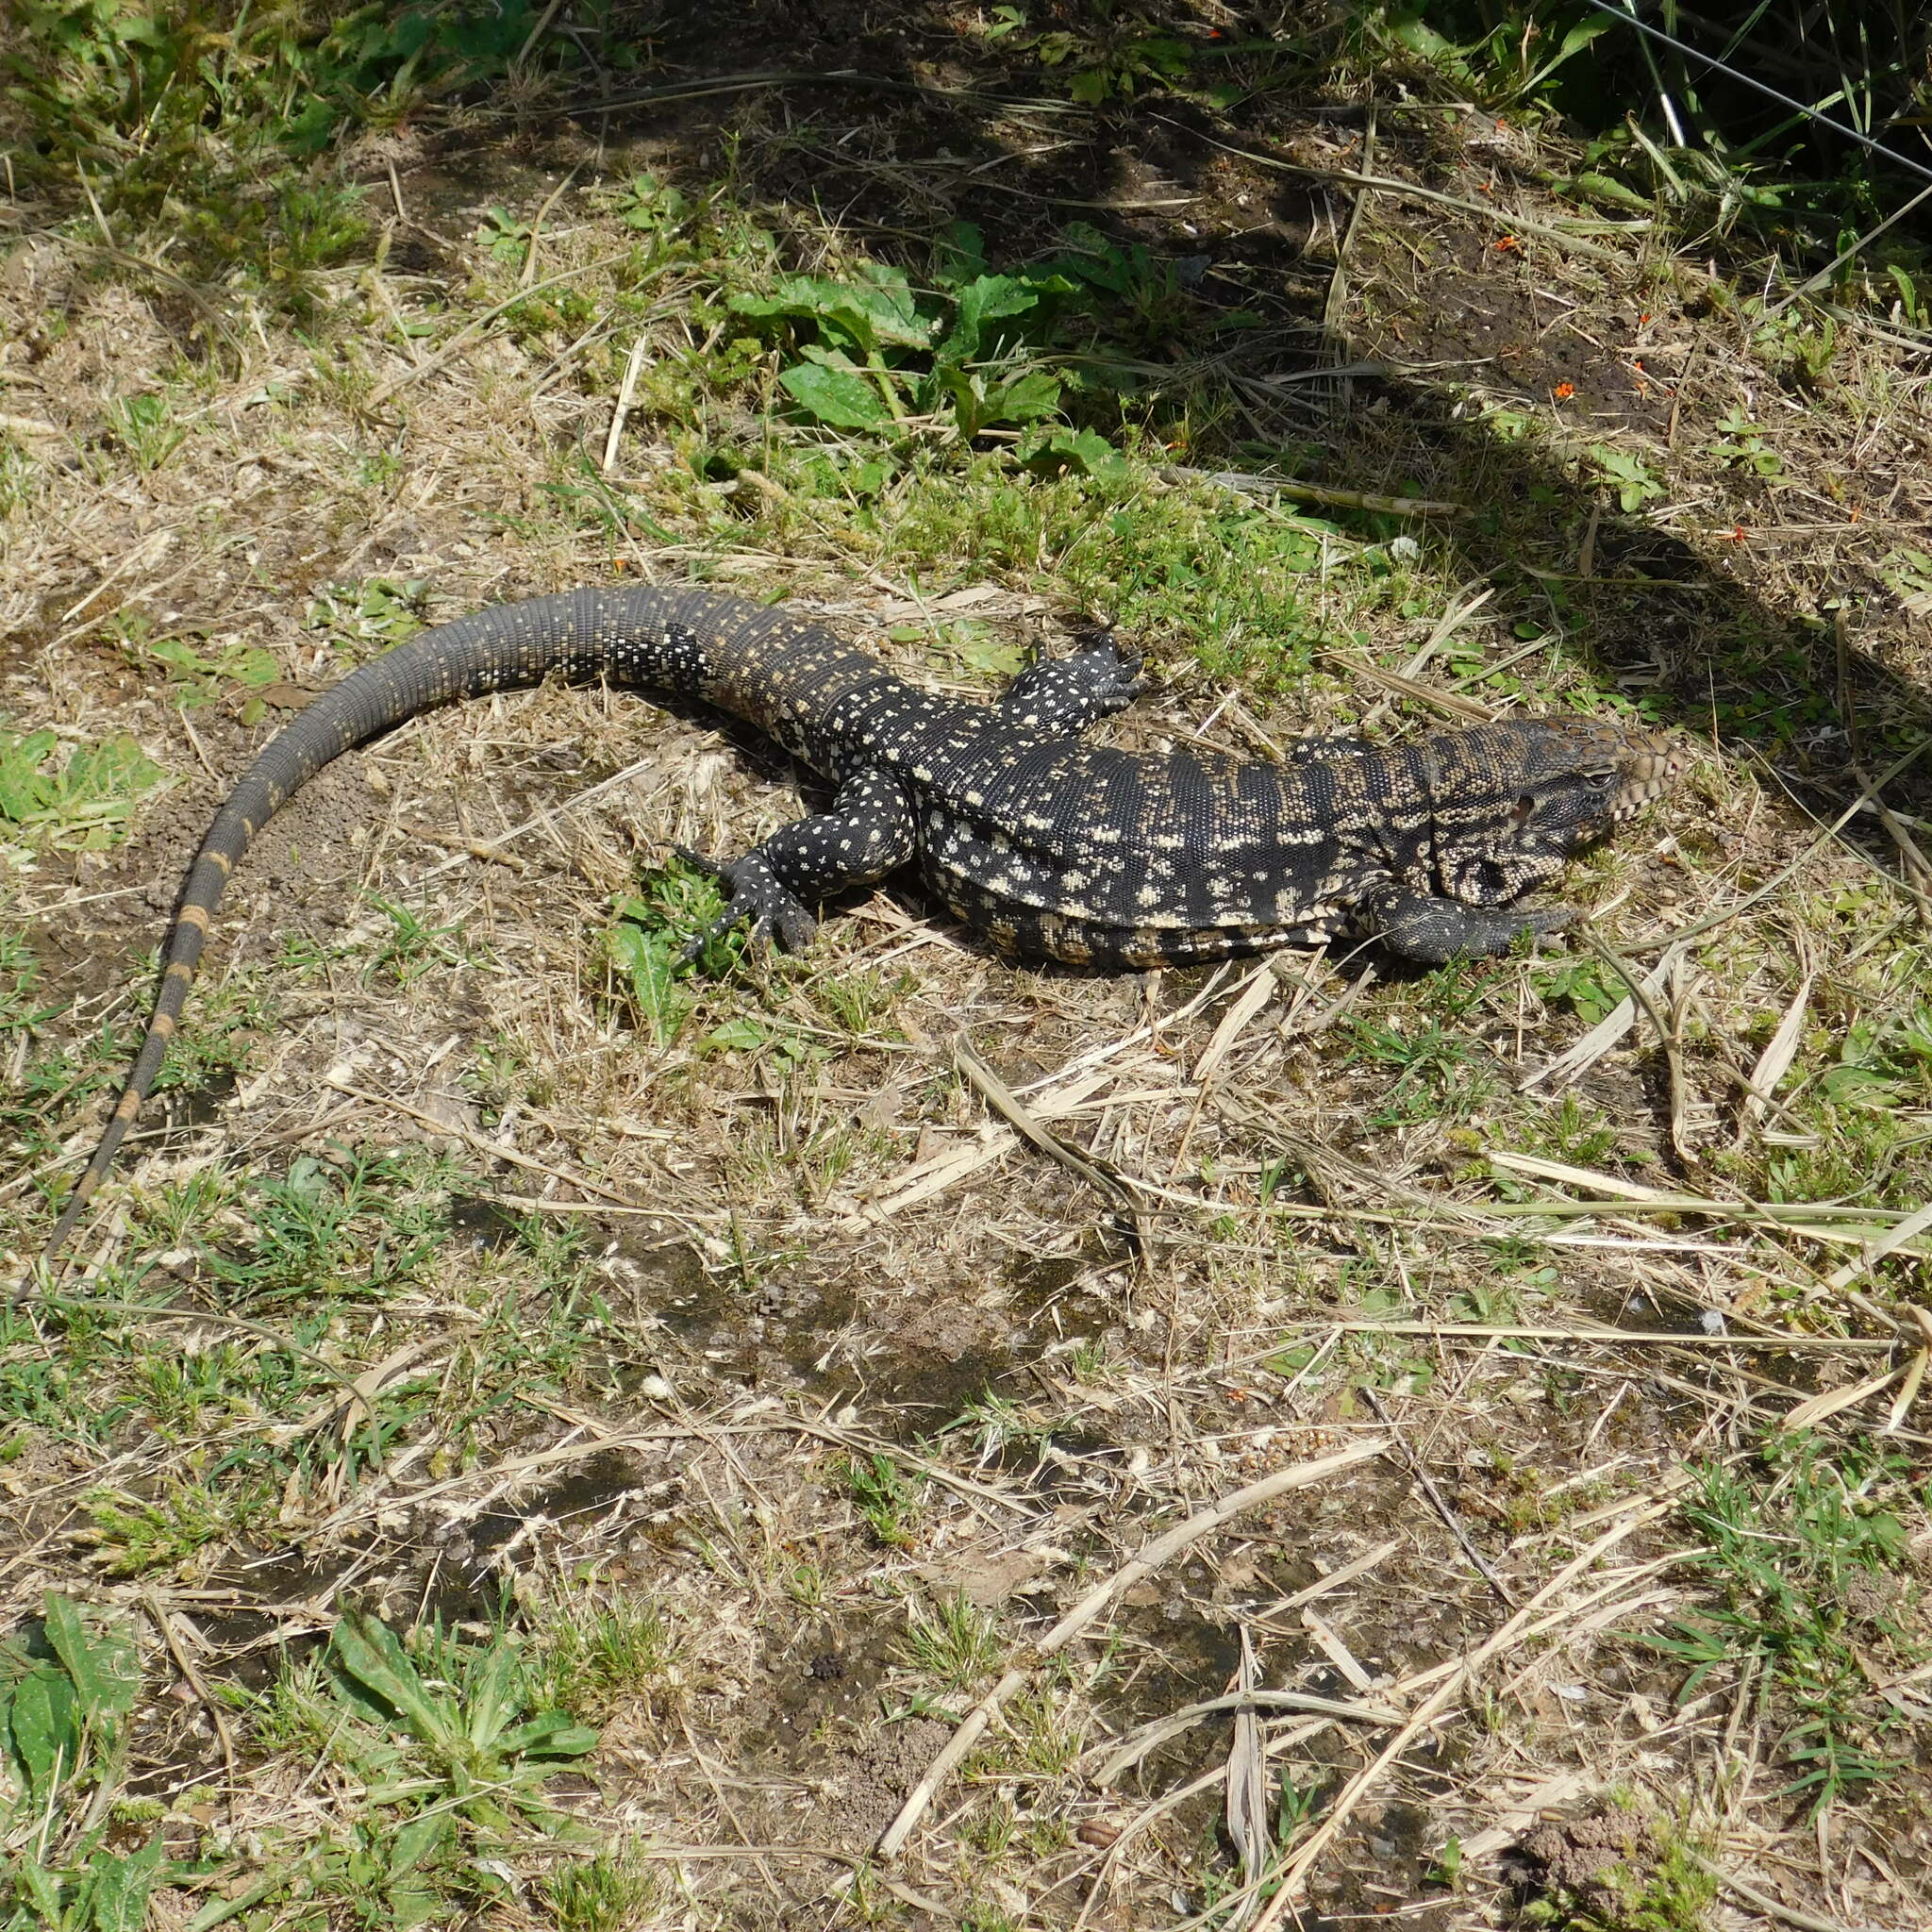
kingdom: Animalia
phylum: Chordata
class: Squamata
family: Teiidae
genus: Salvator
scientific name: Salvator merianae
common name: Argentine black and white tegu
